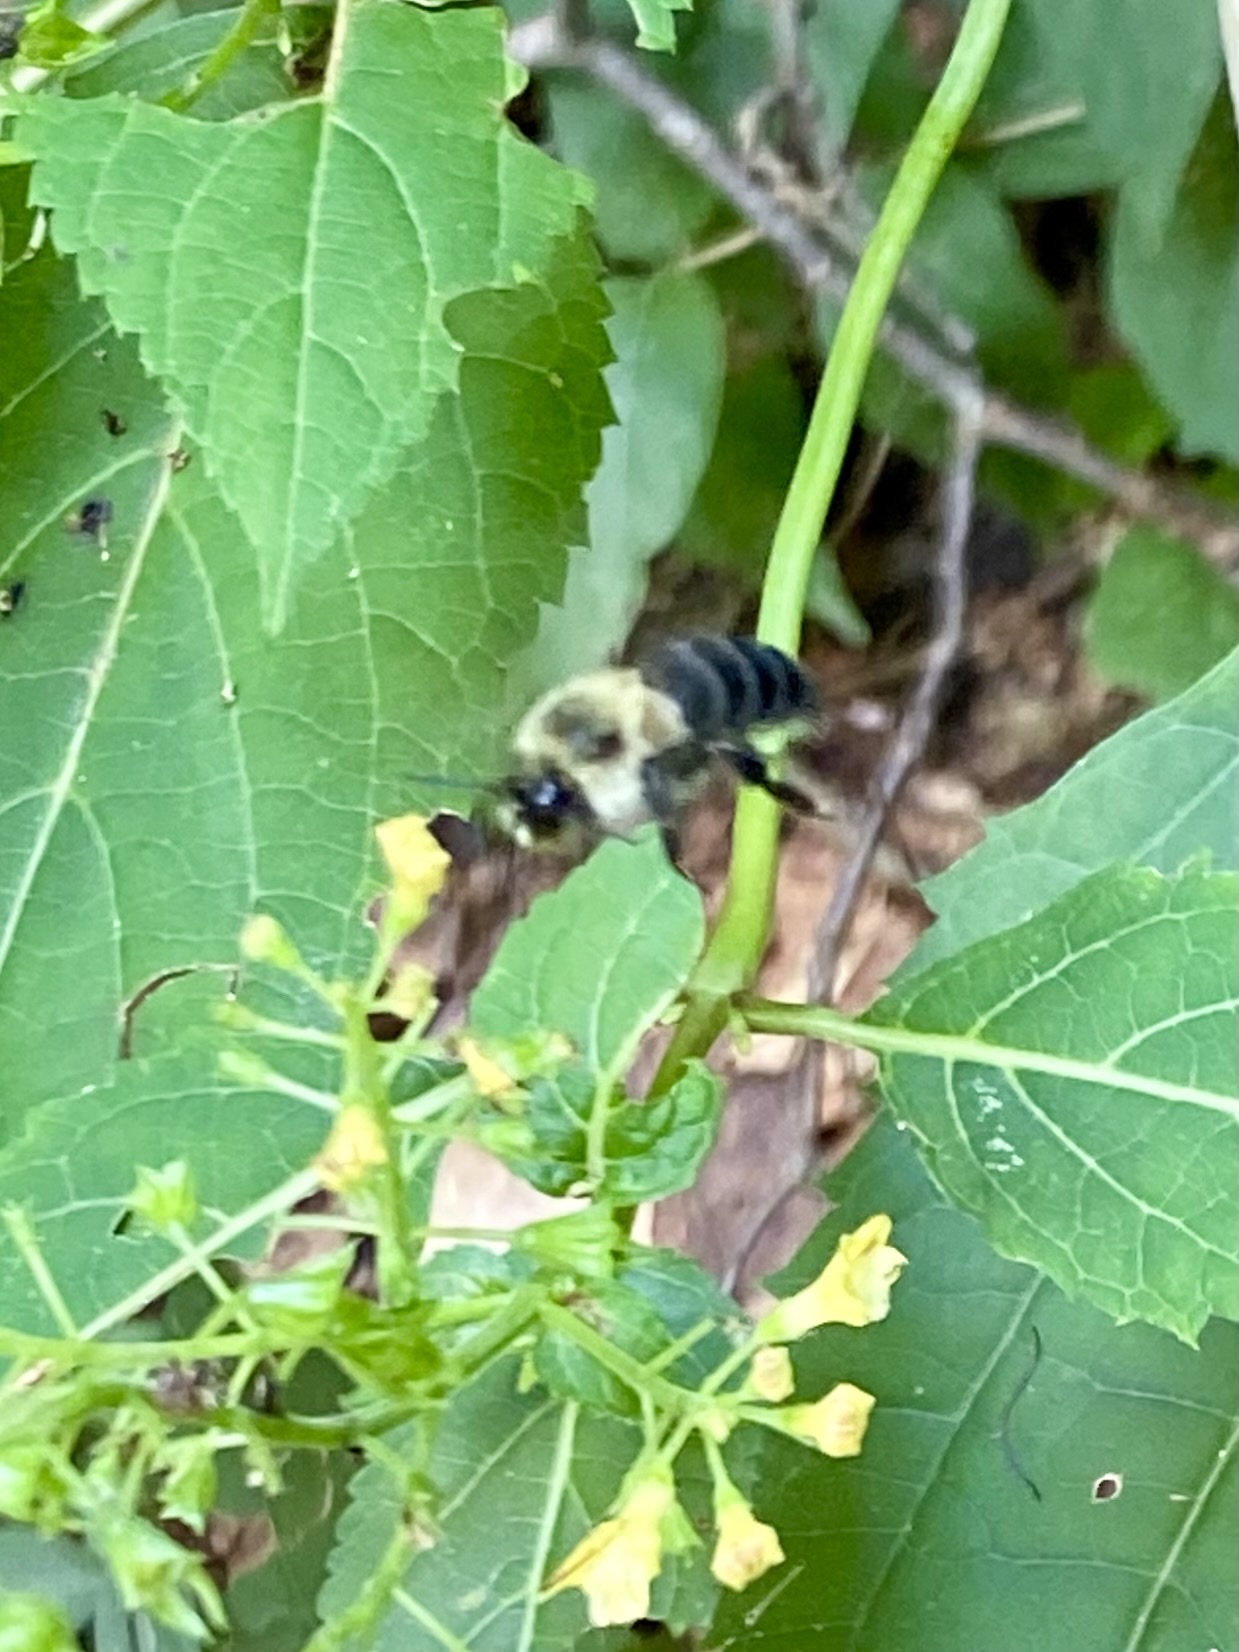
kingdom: Animalia
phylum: Arthropoda
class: Insecta
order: Hymenoptera
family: Apidae
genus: Bombus
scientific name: Bombus impatiens
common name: Common eastern bumble bee
